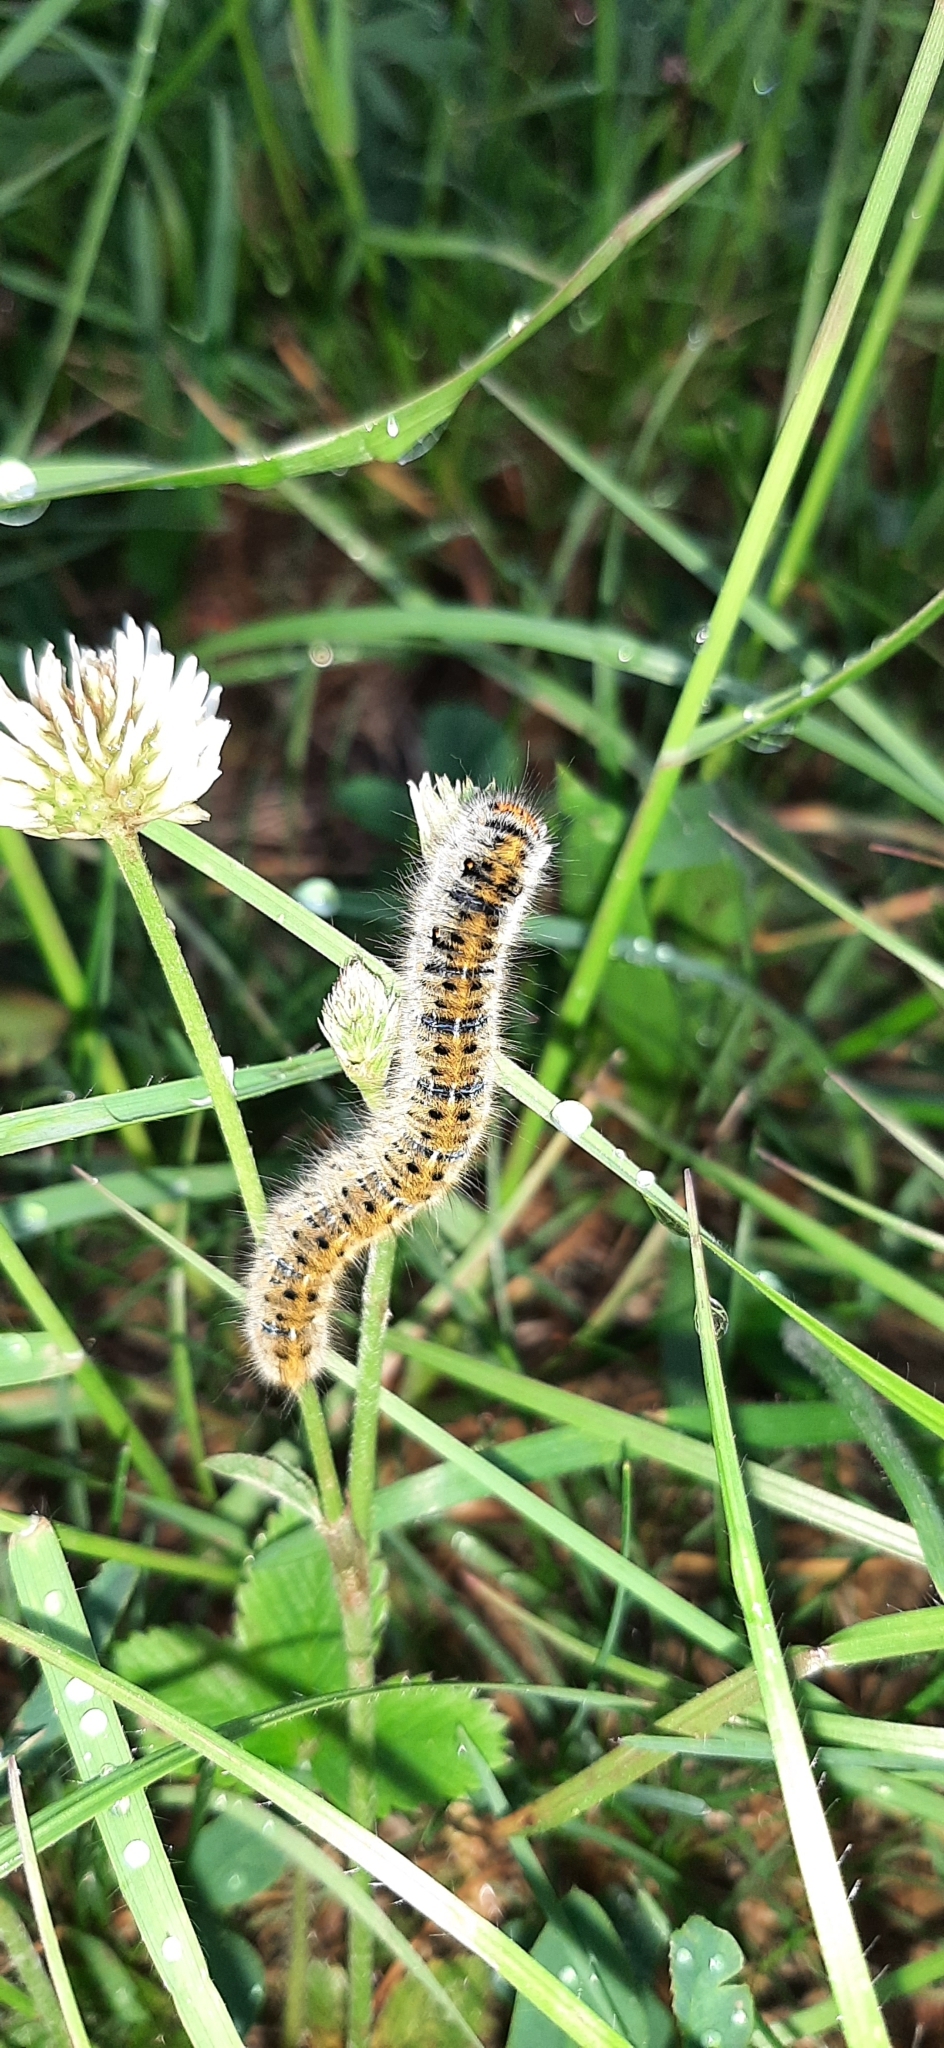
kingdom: Animalia
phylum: Arthropoda
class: Insecta
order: Lepidoptera
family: Lasiocampidae
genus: Lasiocampa
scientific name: Lasiocampa trifolii
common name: Grass eggar
